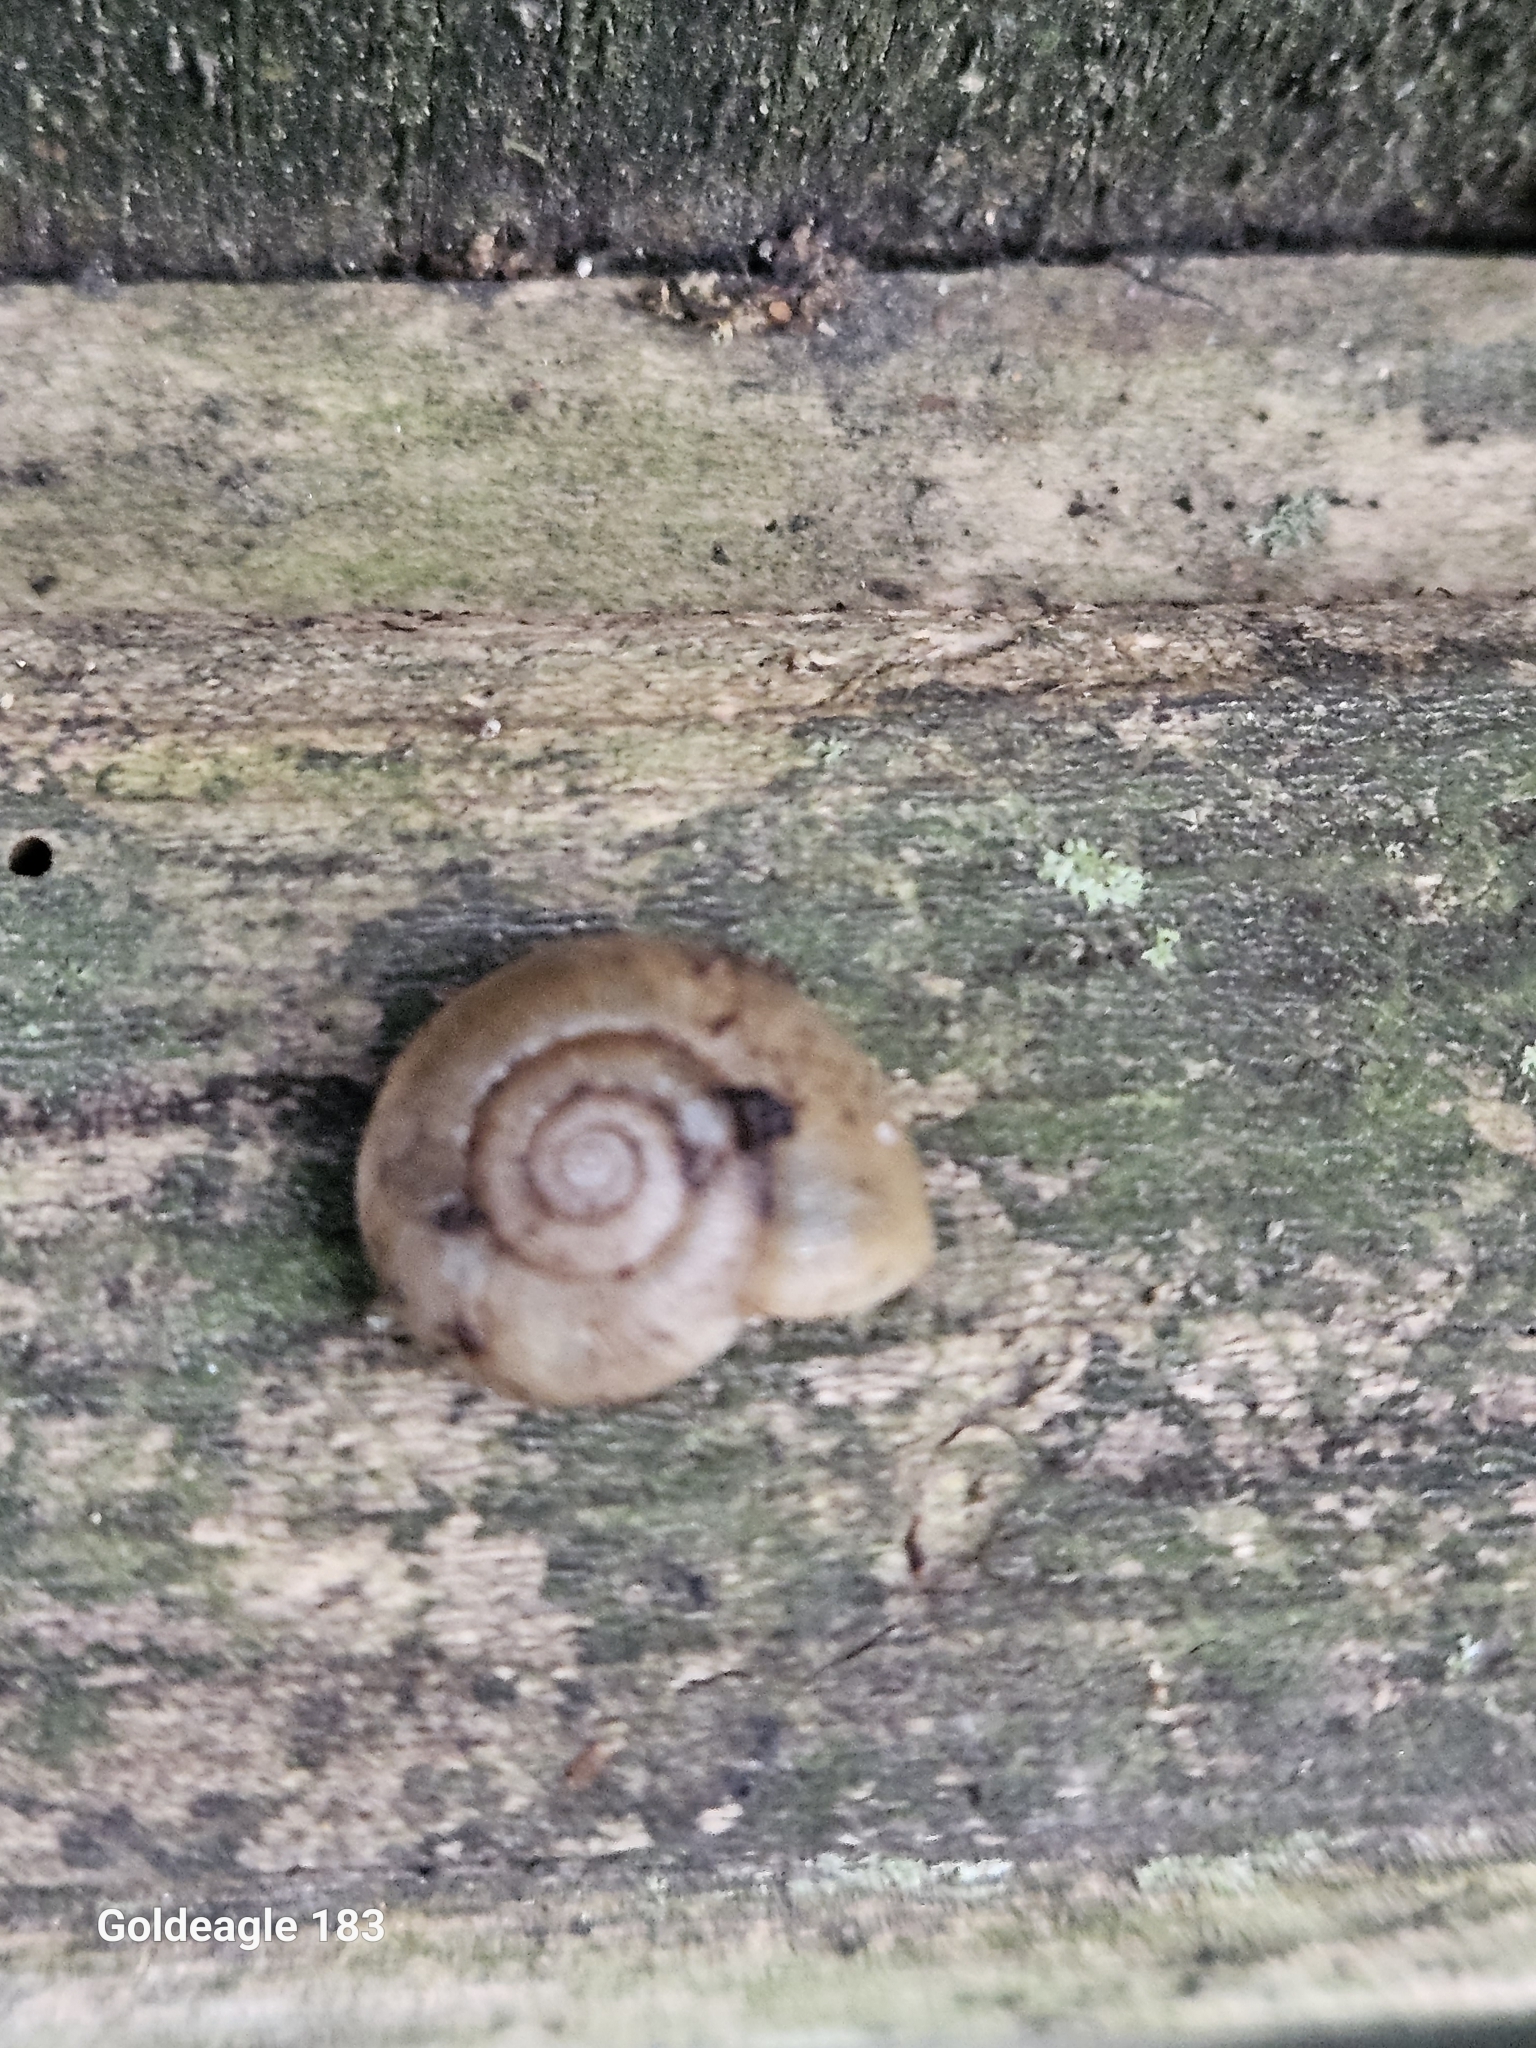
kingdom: Animalia
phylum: Mollusca
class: Gastropoda
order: Stylommatophora
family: Haplotrematidae
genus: Haplotrema
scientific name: Haplotrema concavum
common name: Gray-foot lancetooth
